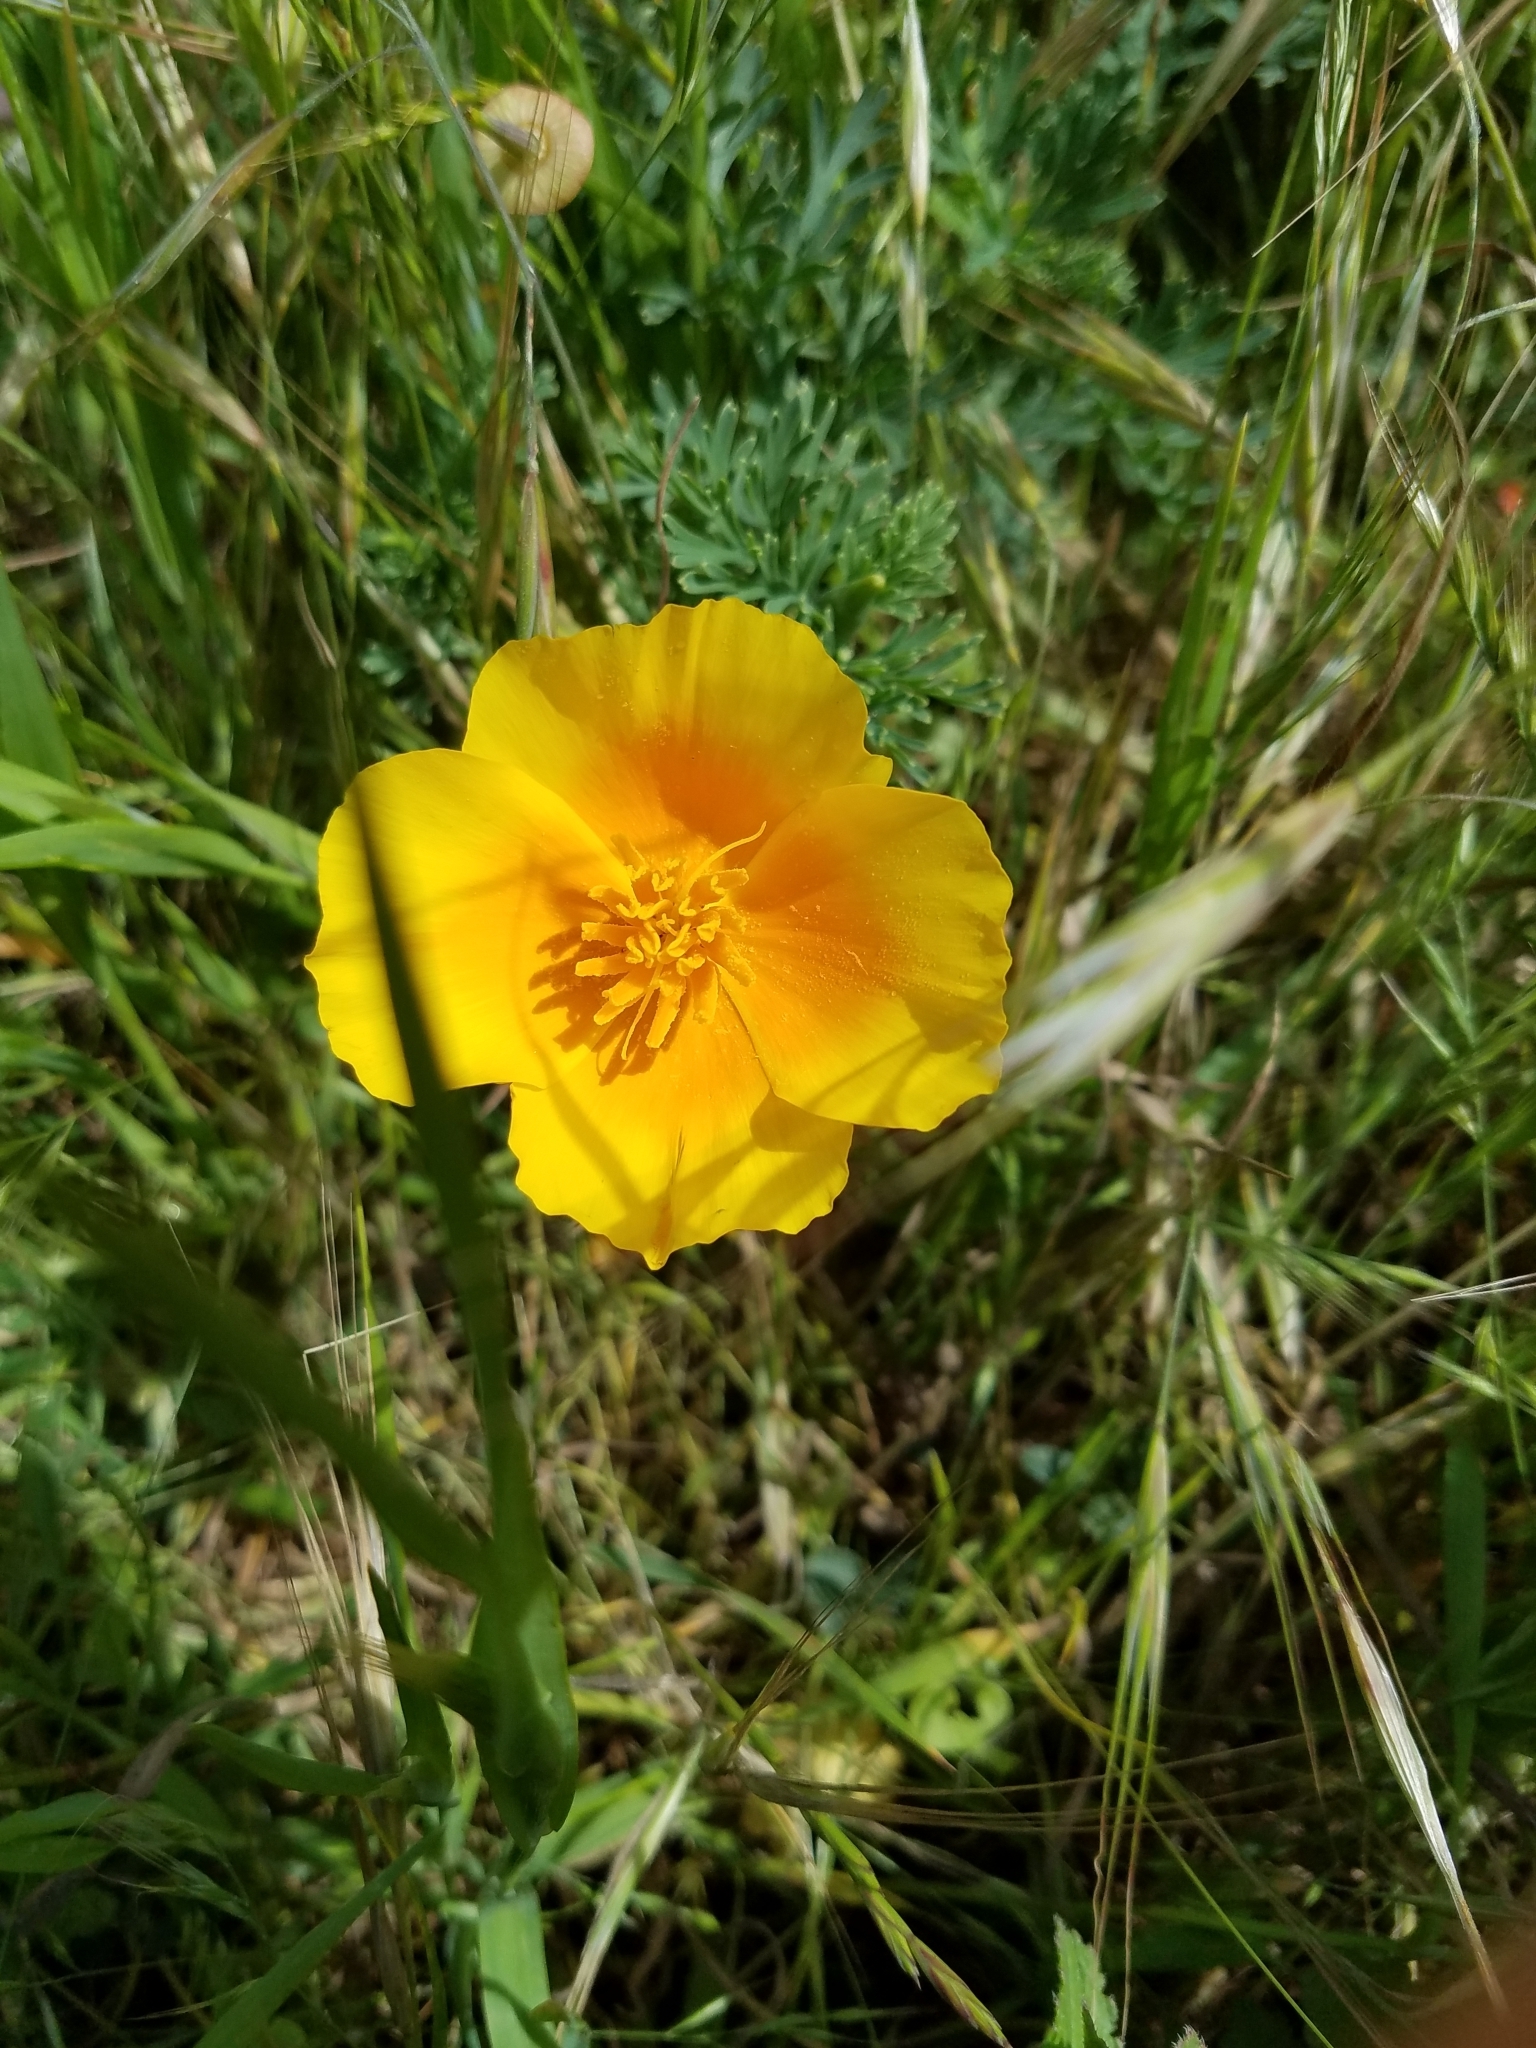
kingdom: Plantae
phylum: Tracheophyta
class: Magnoliopsida
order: Ranunculales
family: Papaveraceae
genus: Eschscholzia
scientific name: Eschscholzia californica
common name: California poppy
